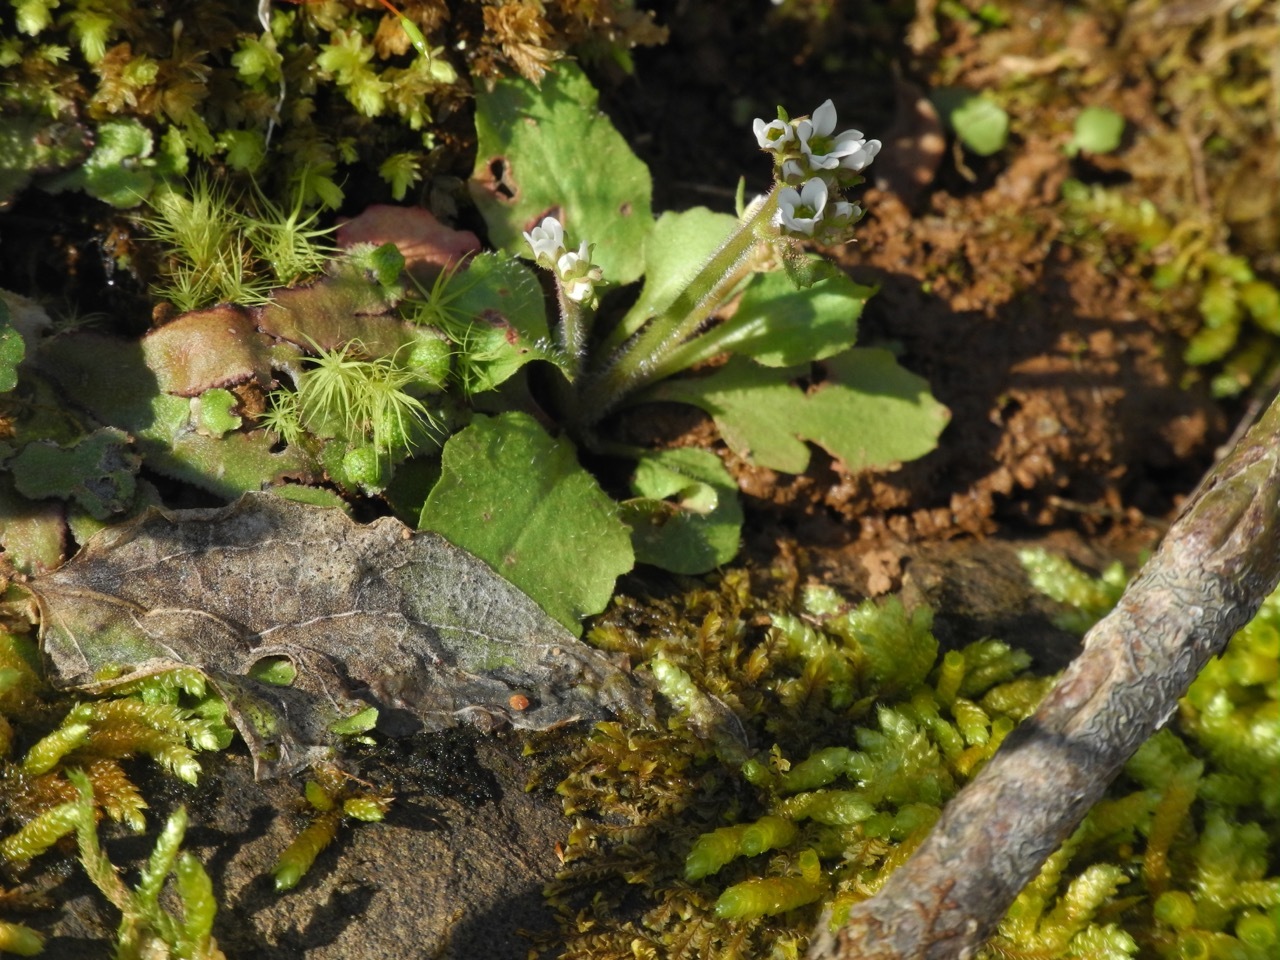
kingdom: Plantae
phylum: Tracheophyta
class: Magnoliopsida
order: Saxifragales
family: Saxifragaceae
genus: Micranthes
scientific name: Micranthes virginiensis
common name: Early saxifrage
